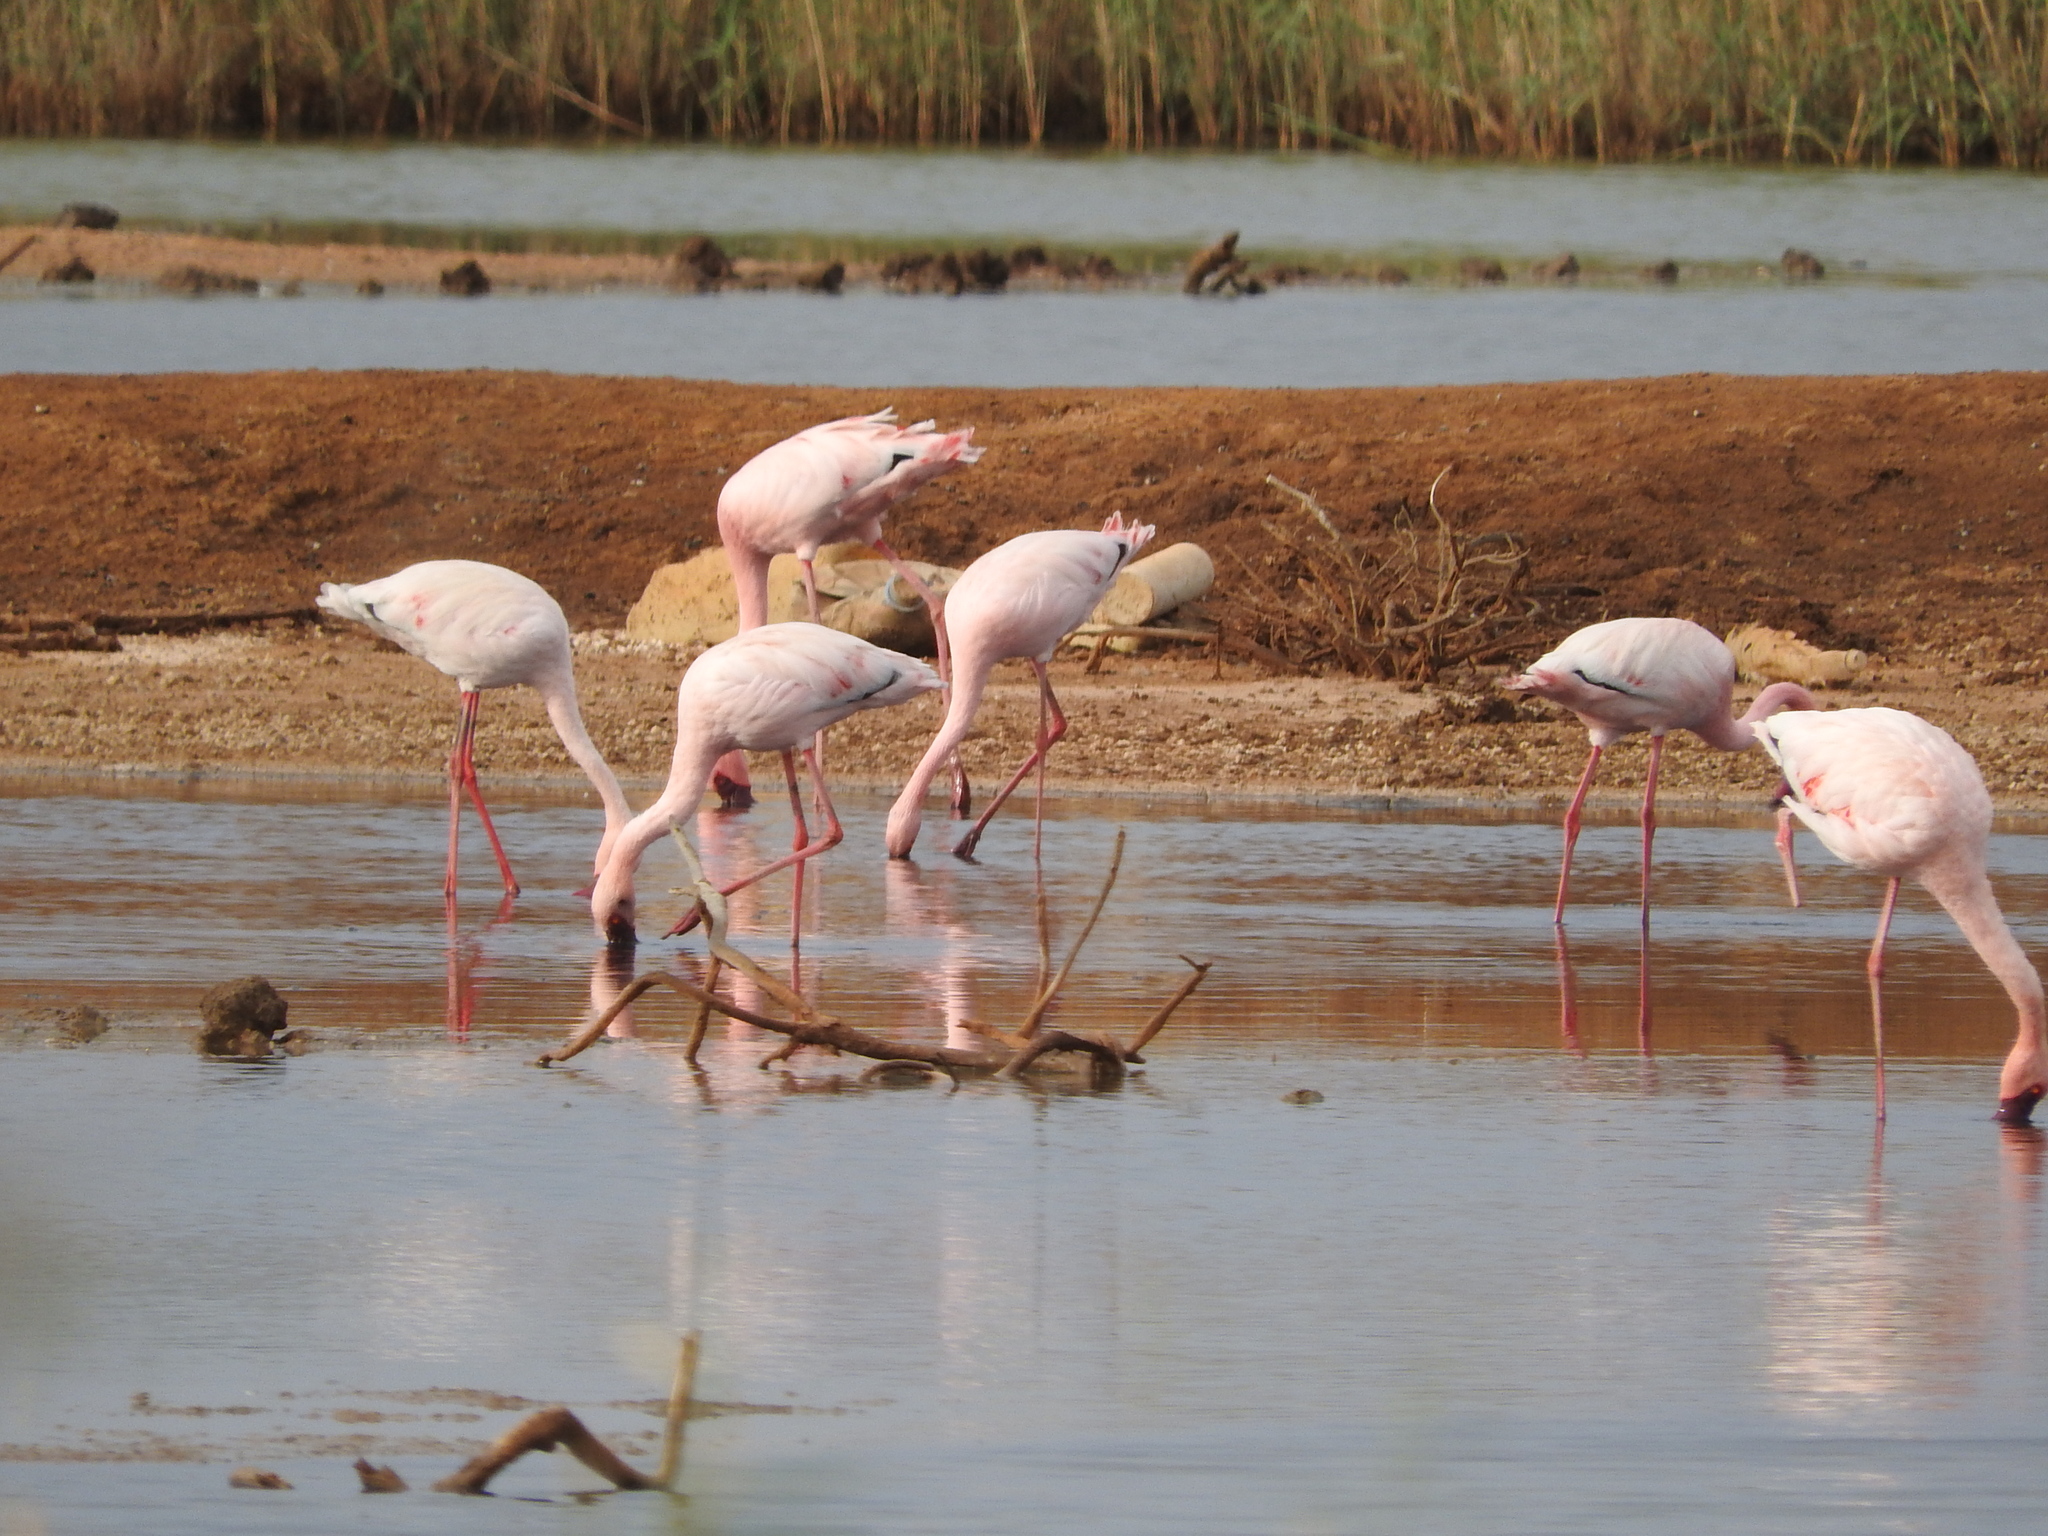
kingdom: Animalia
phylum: Chordata
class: Aves
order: Phoenicopteriformes
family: Phoenicopteridae
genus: Phoeniconaias
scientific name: Phoeniconaias minor
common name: Lesser flamingo
